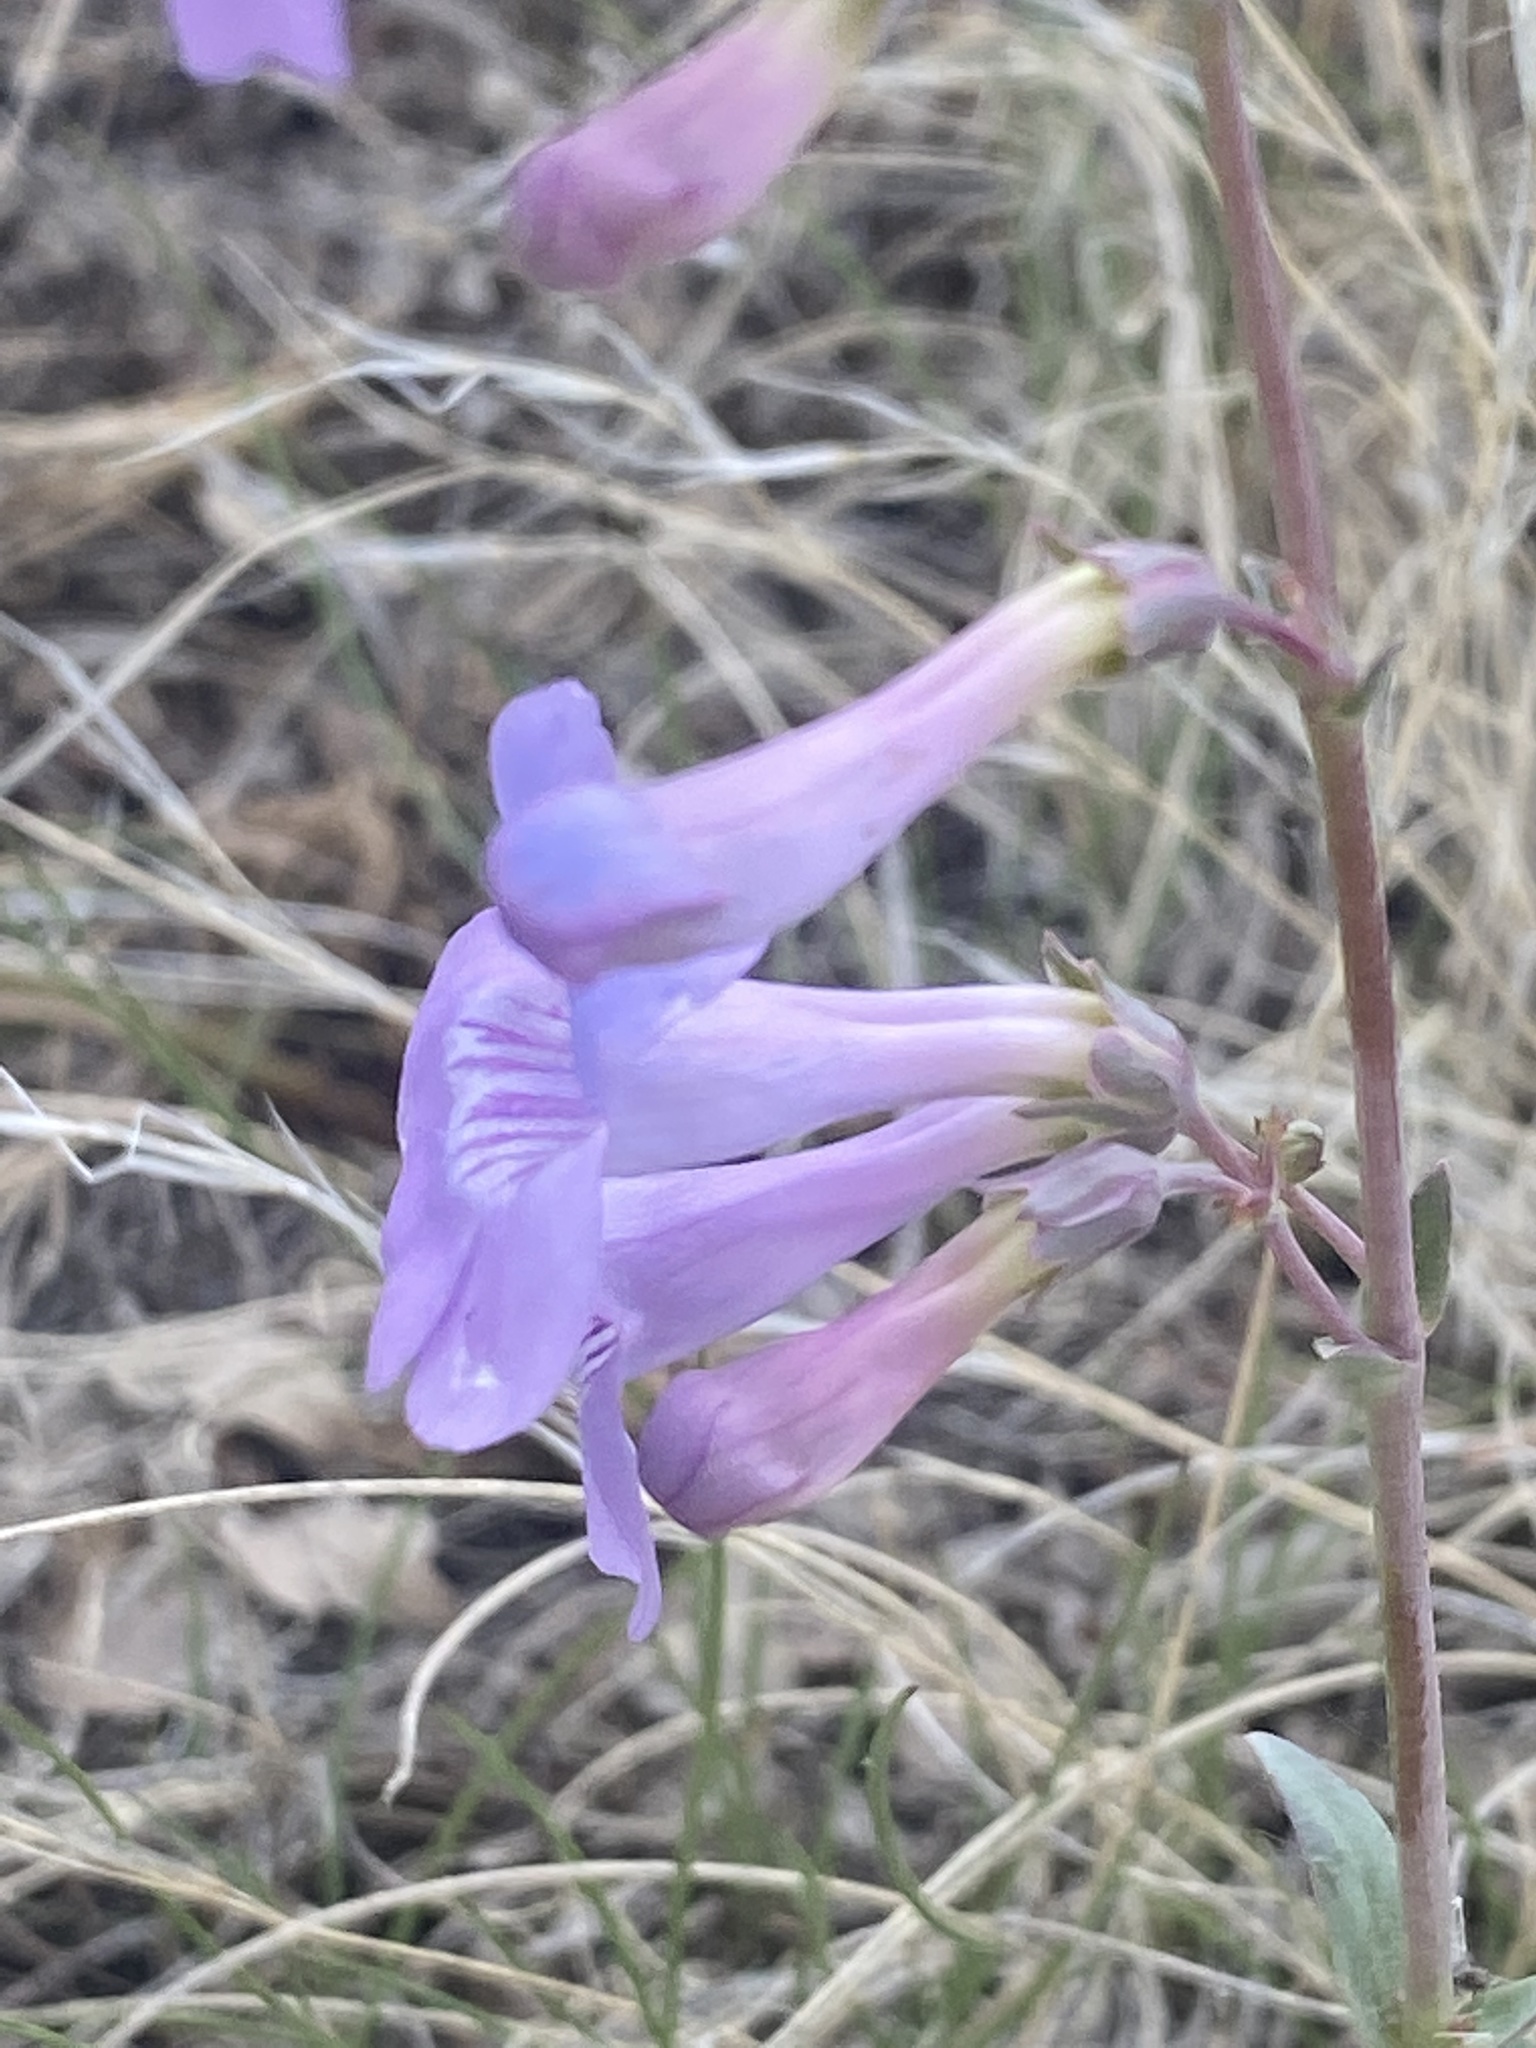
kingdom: Plantae
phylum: Tracheophyta
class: Magnoliopsida
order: Lamiales
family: Plantaginaceae
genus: Penstemon
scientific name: Penstemon secundiflorus
